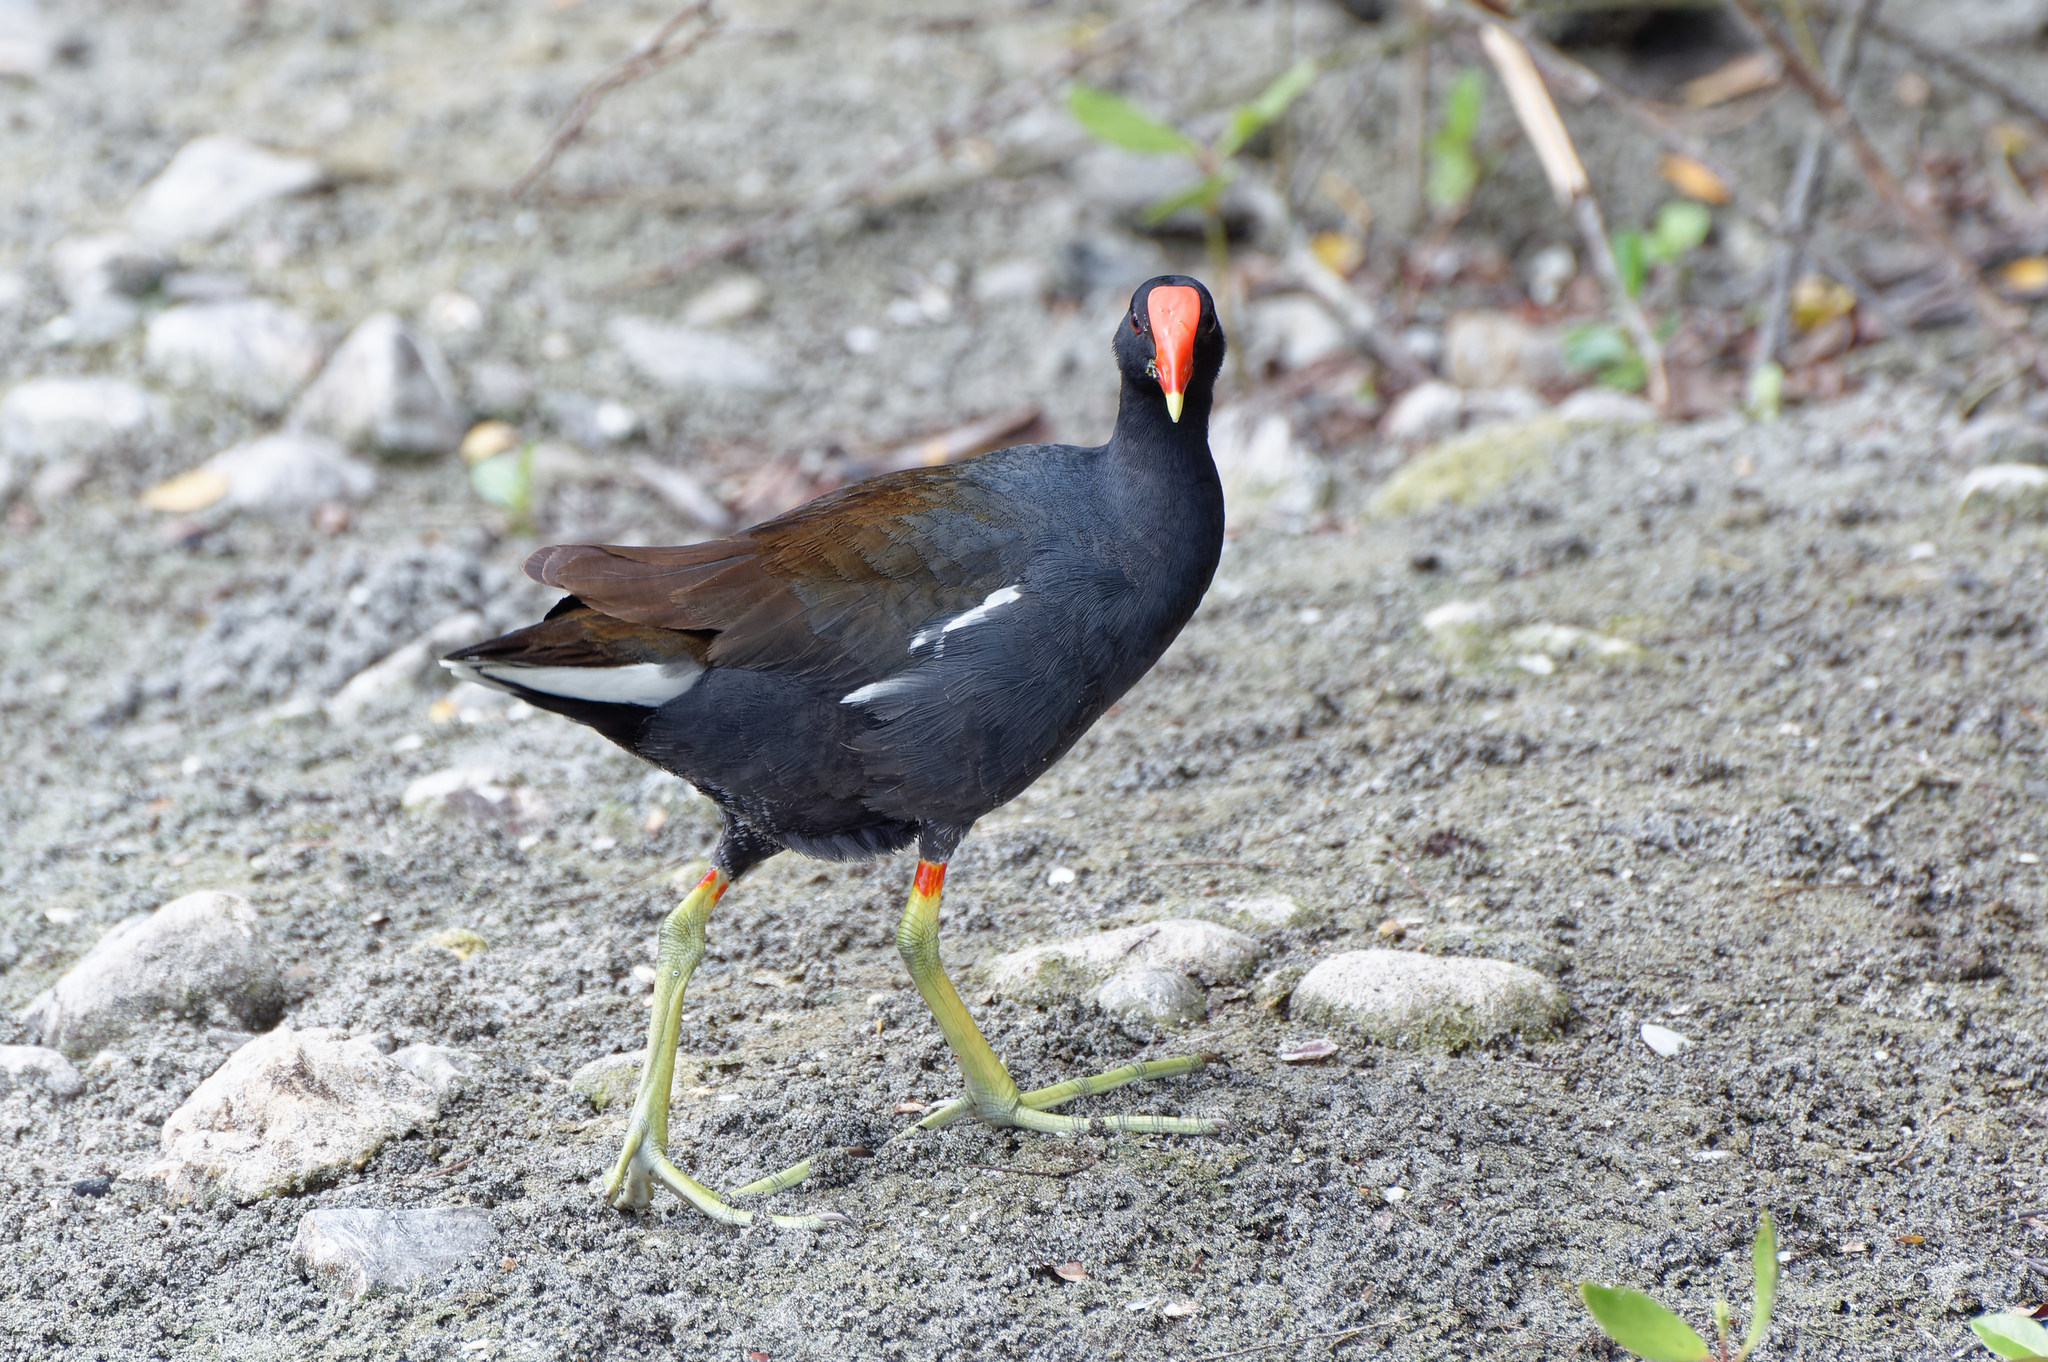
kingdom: Animalia
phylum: Chordata
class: Aves
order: Gruiformes
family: Rallidae
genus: Gallinula
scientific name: Gallinula chloropus
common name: Common moorhen
